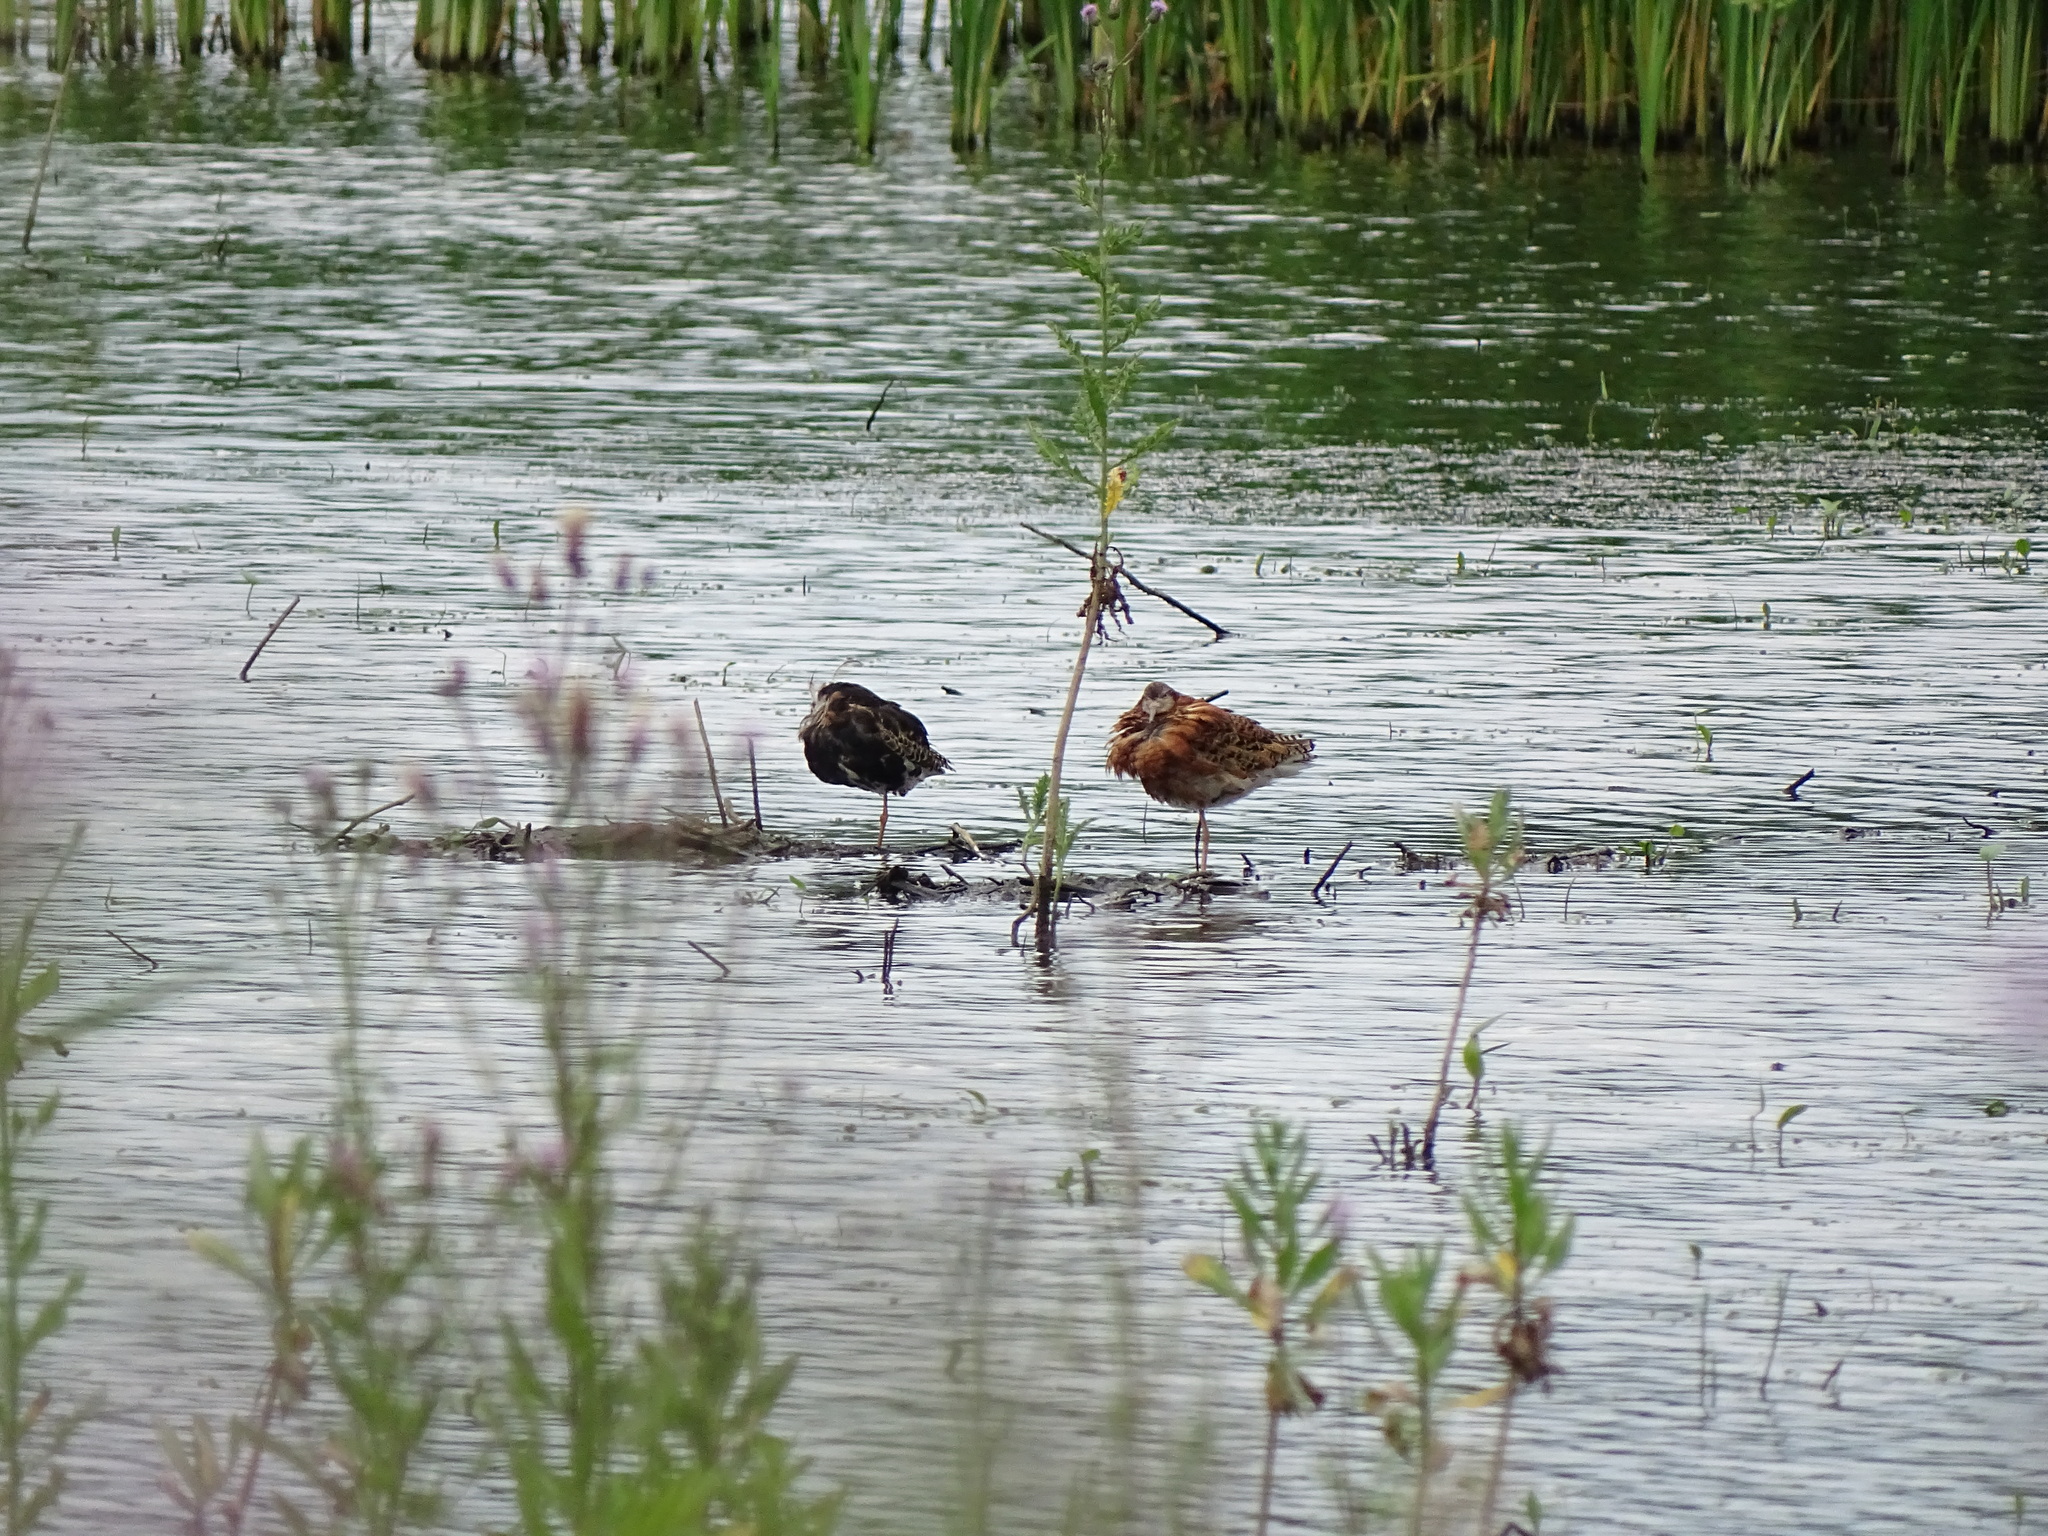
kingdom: Animalia
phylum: Chordata
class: Aves
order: Charadriiformes
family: Scolopacidae
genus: Calidris
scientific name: Calidris pugnax
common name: Ruff
